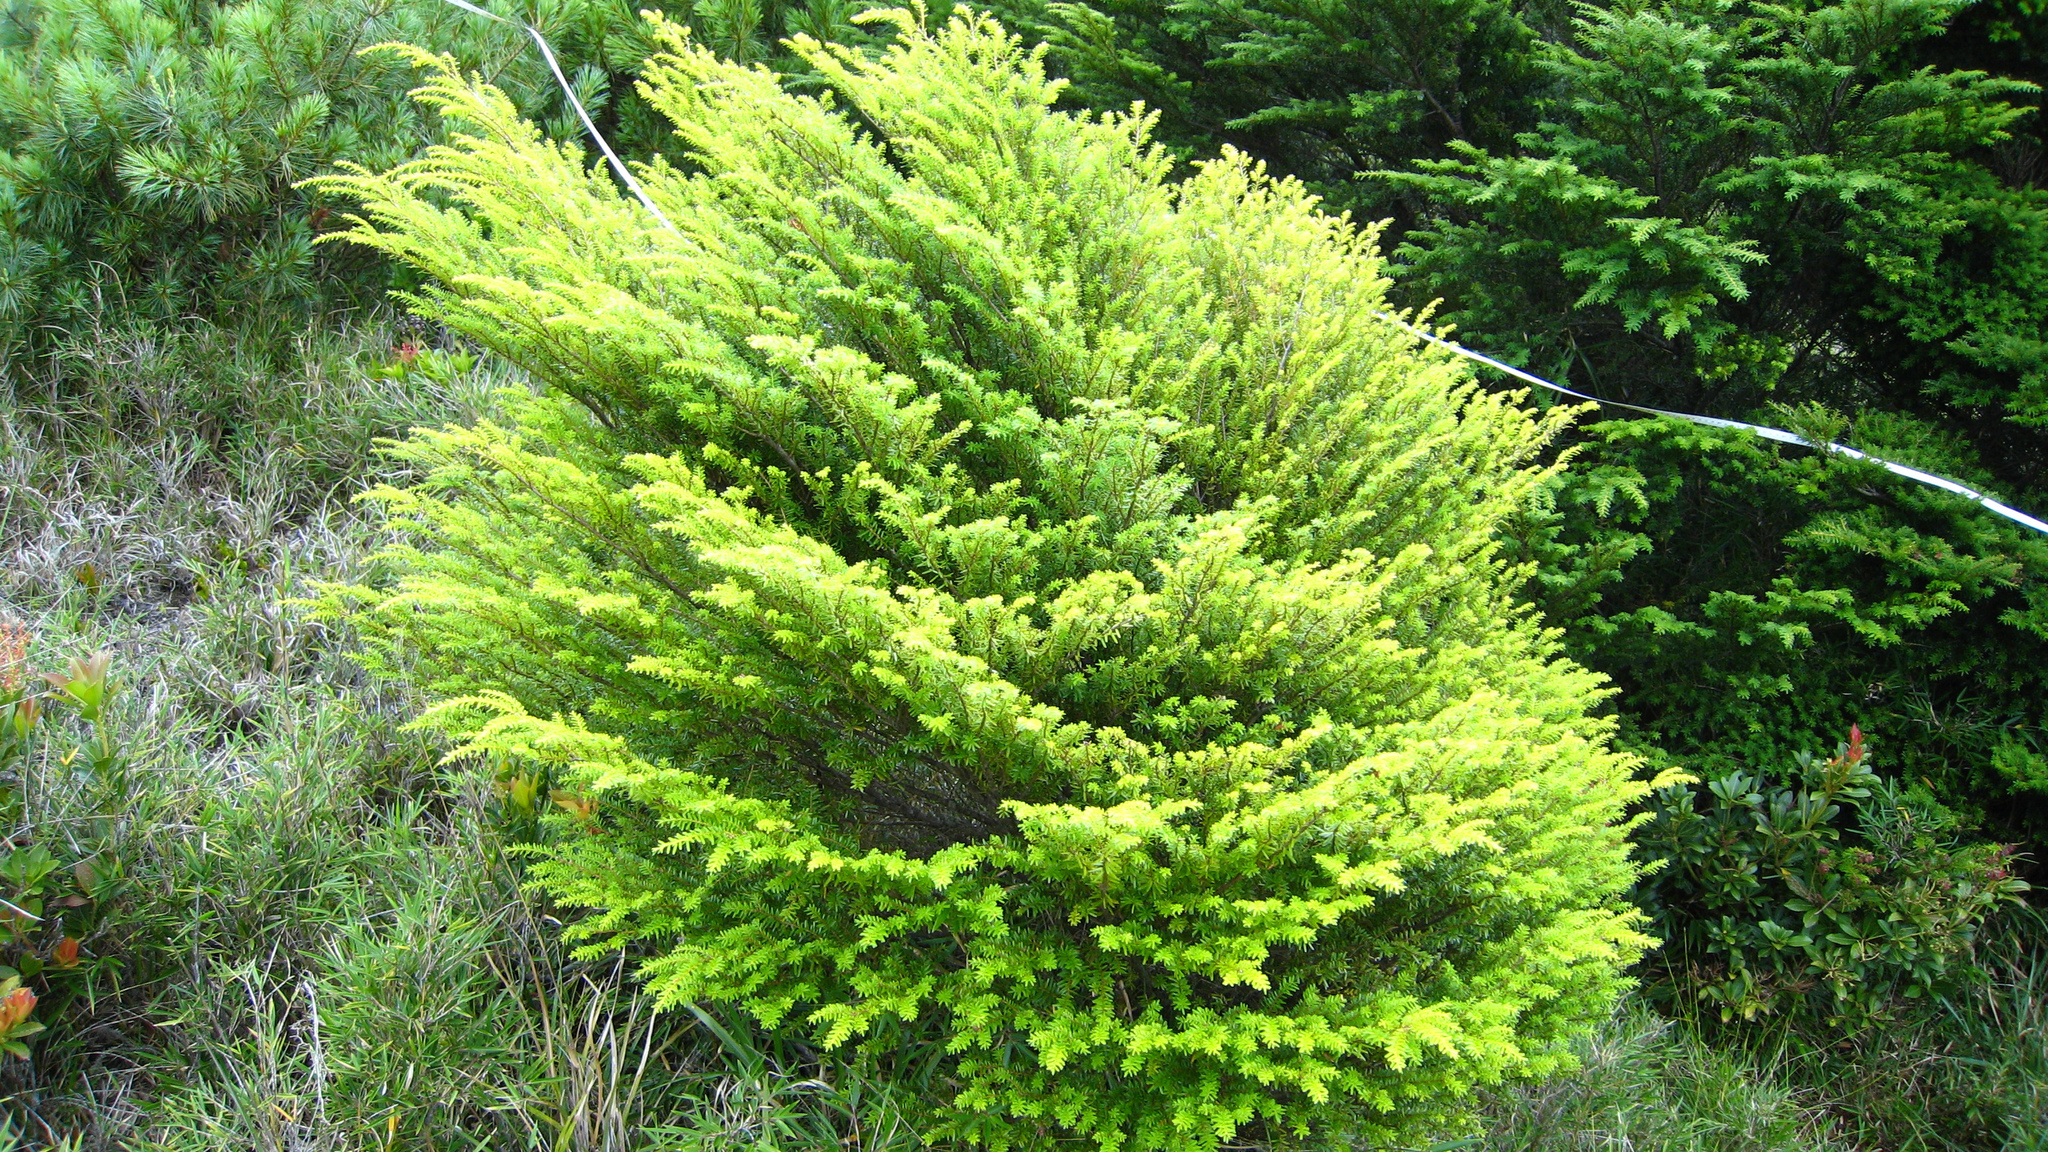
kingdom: Plantae
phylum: Tracheophyta
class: Pinopsida
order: Pinales
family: Pinaceae
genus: Tsuga
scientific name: Tsuga chinensis
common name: Chinese hemlock
